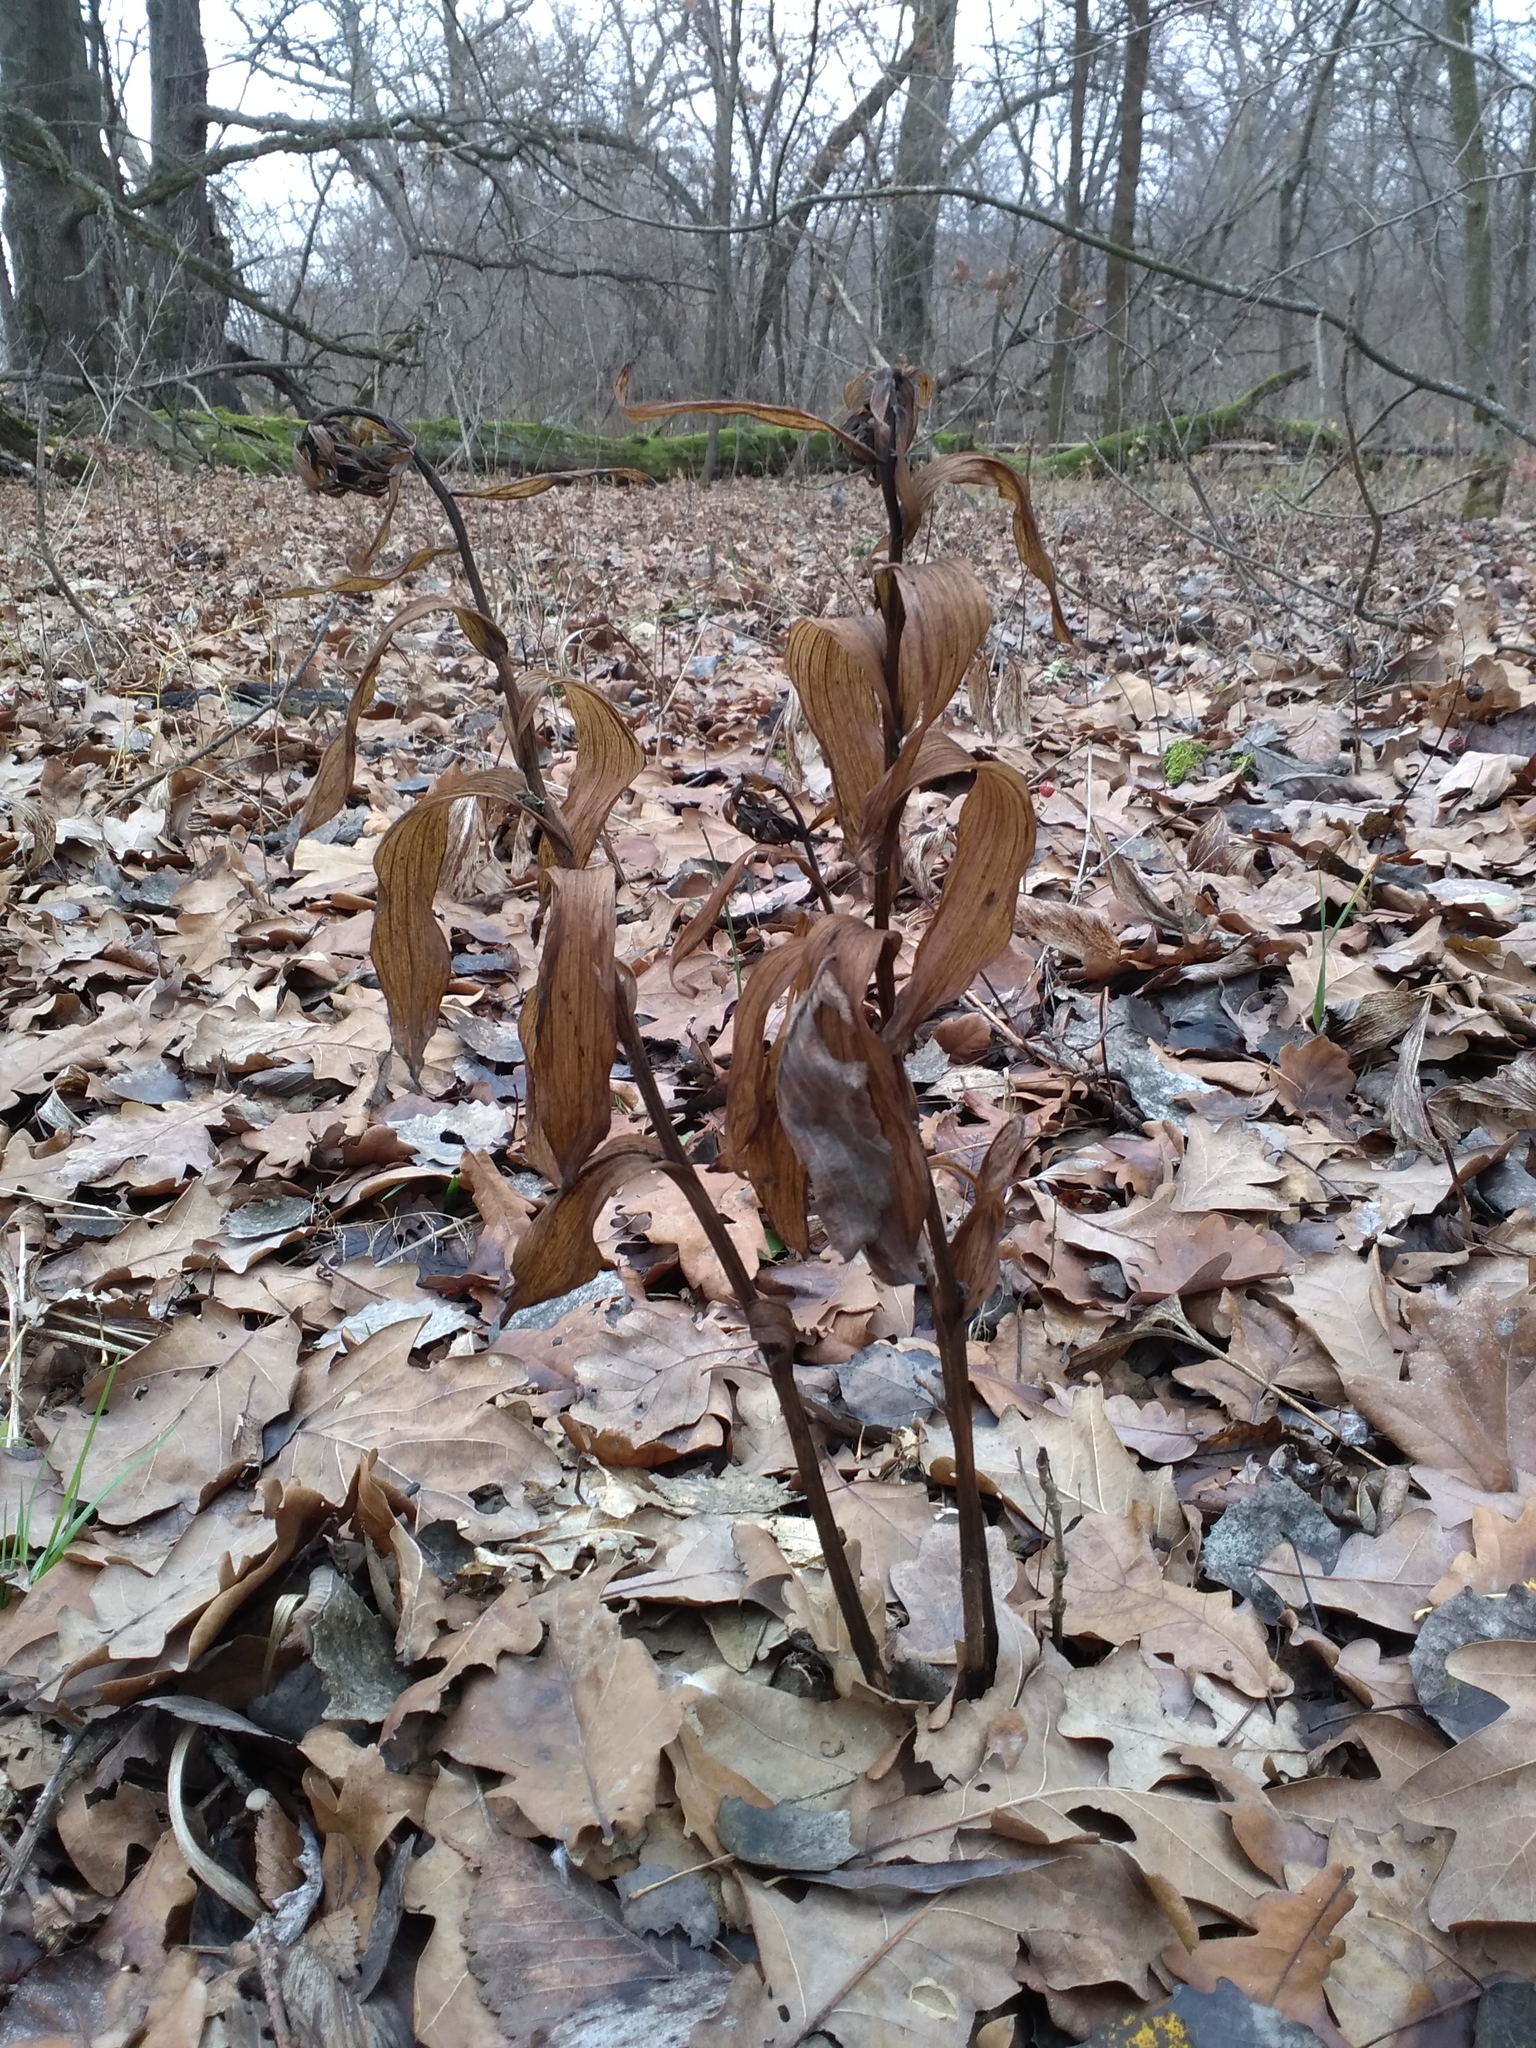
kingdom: Plantae
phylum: Tracheophyta
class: Liliopsida
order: Asparagales
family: Orchidaceae
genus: Epipactis
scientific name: Epipactis helleborine
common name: Broad-leaved helleborine
